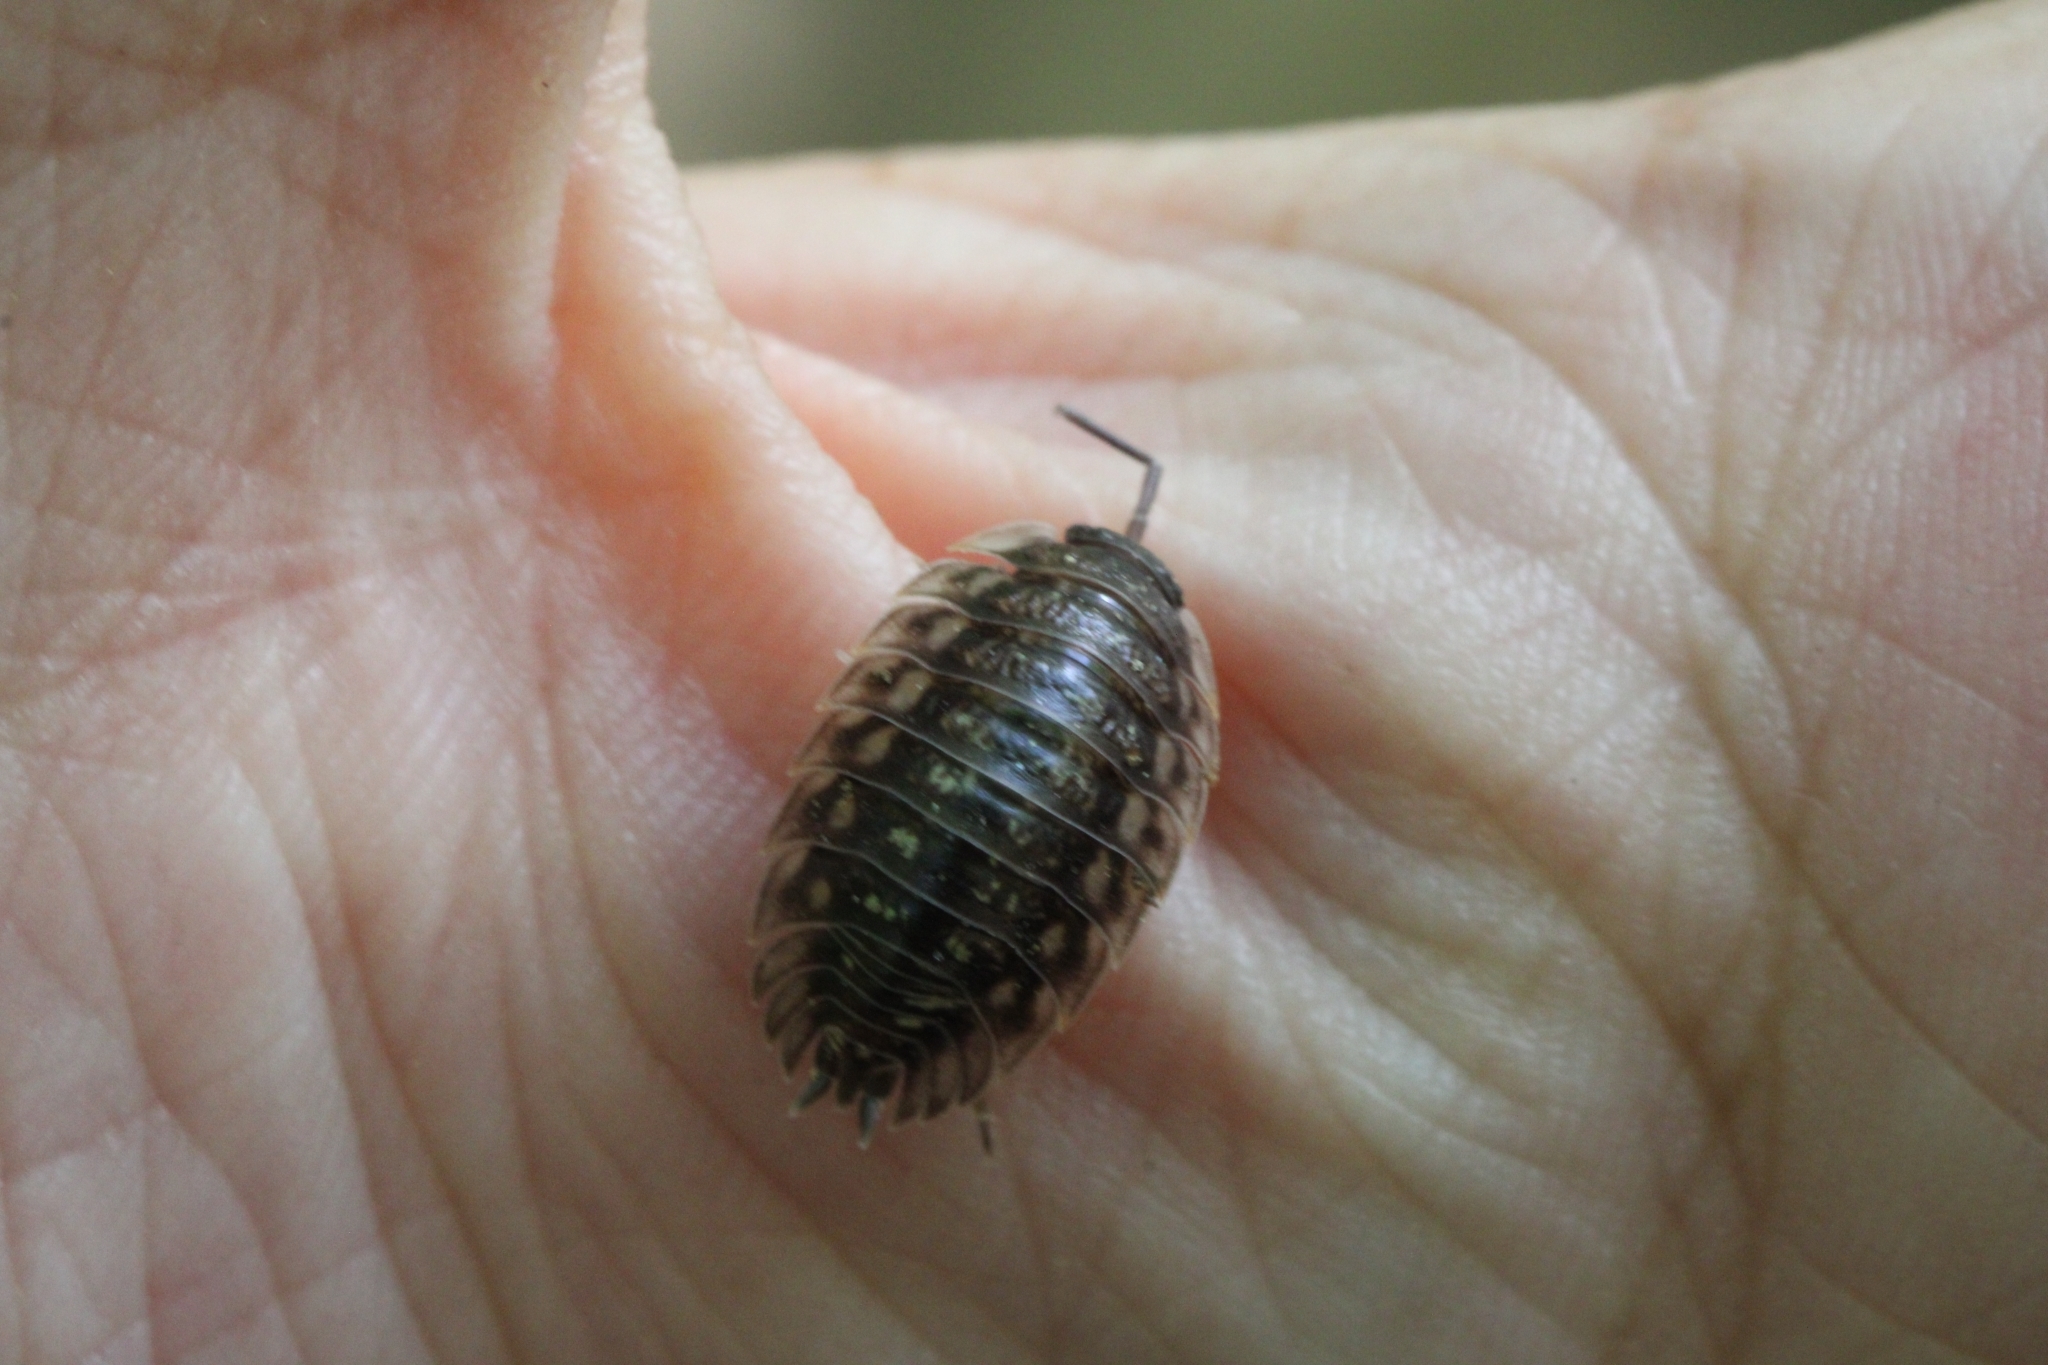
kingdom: Animalia
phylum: Arthropoda
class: Malacostraca
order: Isopoda
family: Oniscidae
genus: Oniscus
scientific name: Oniscus asellus
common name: Common shiny woodlouse
